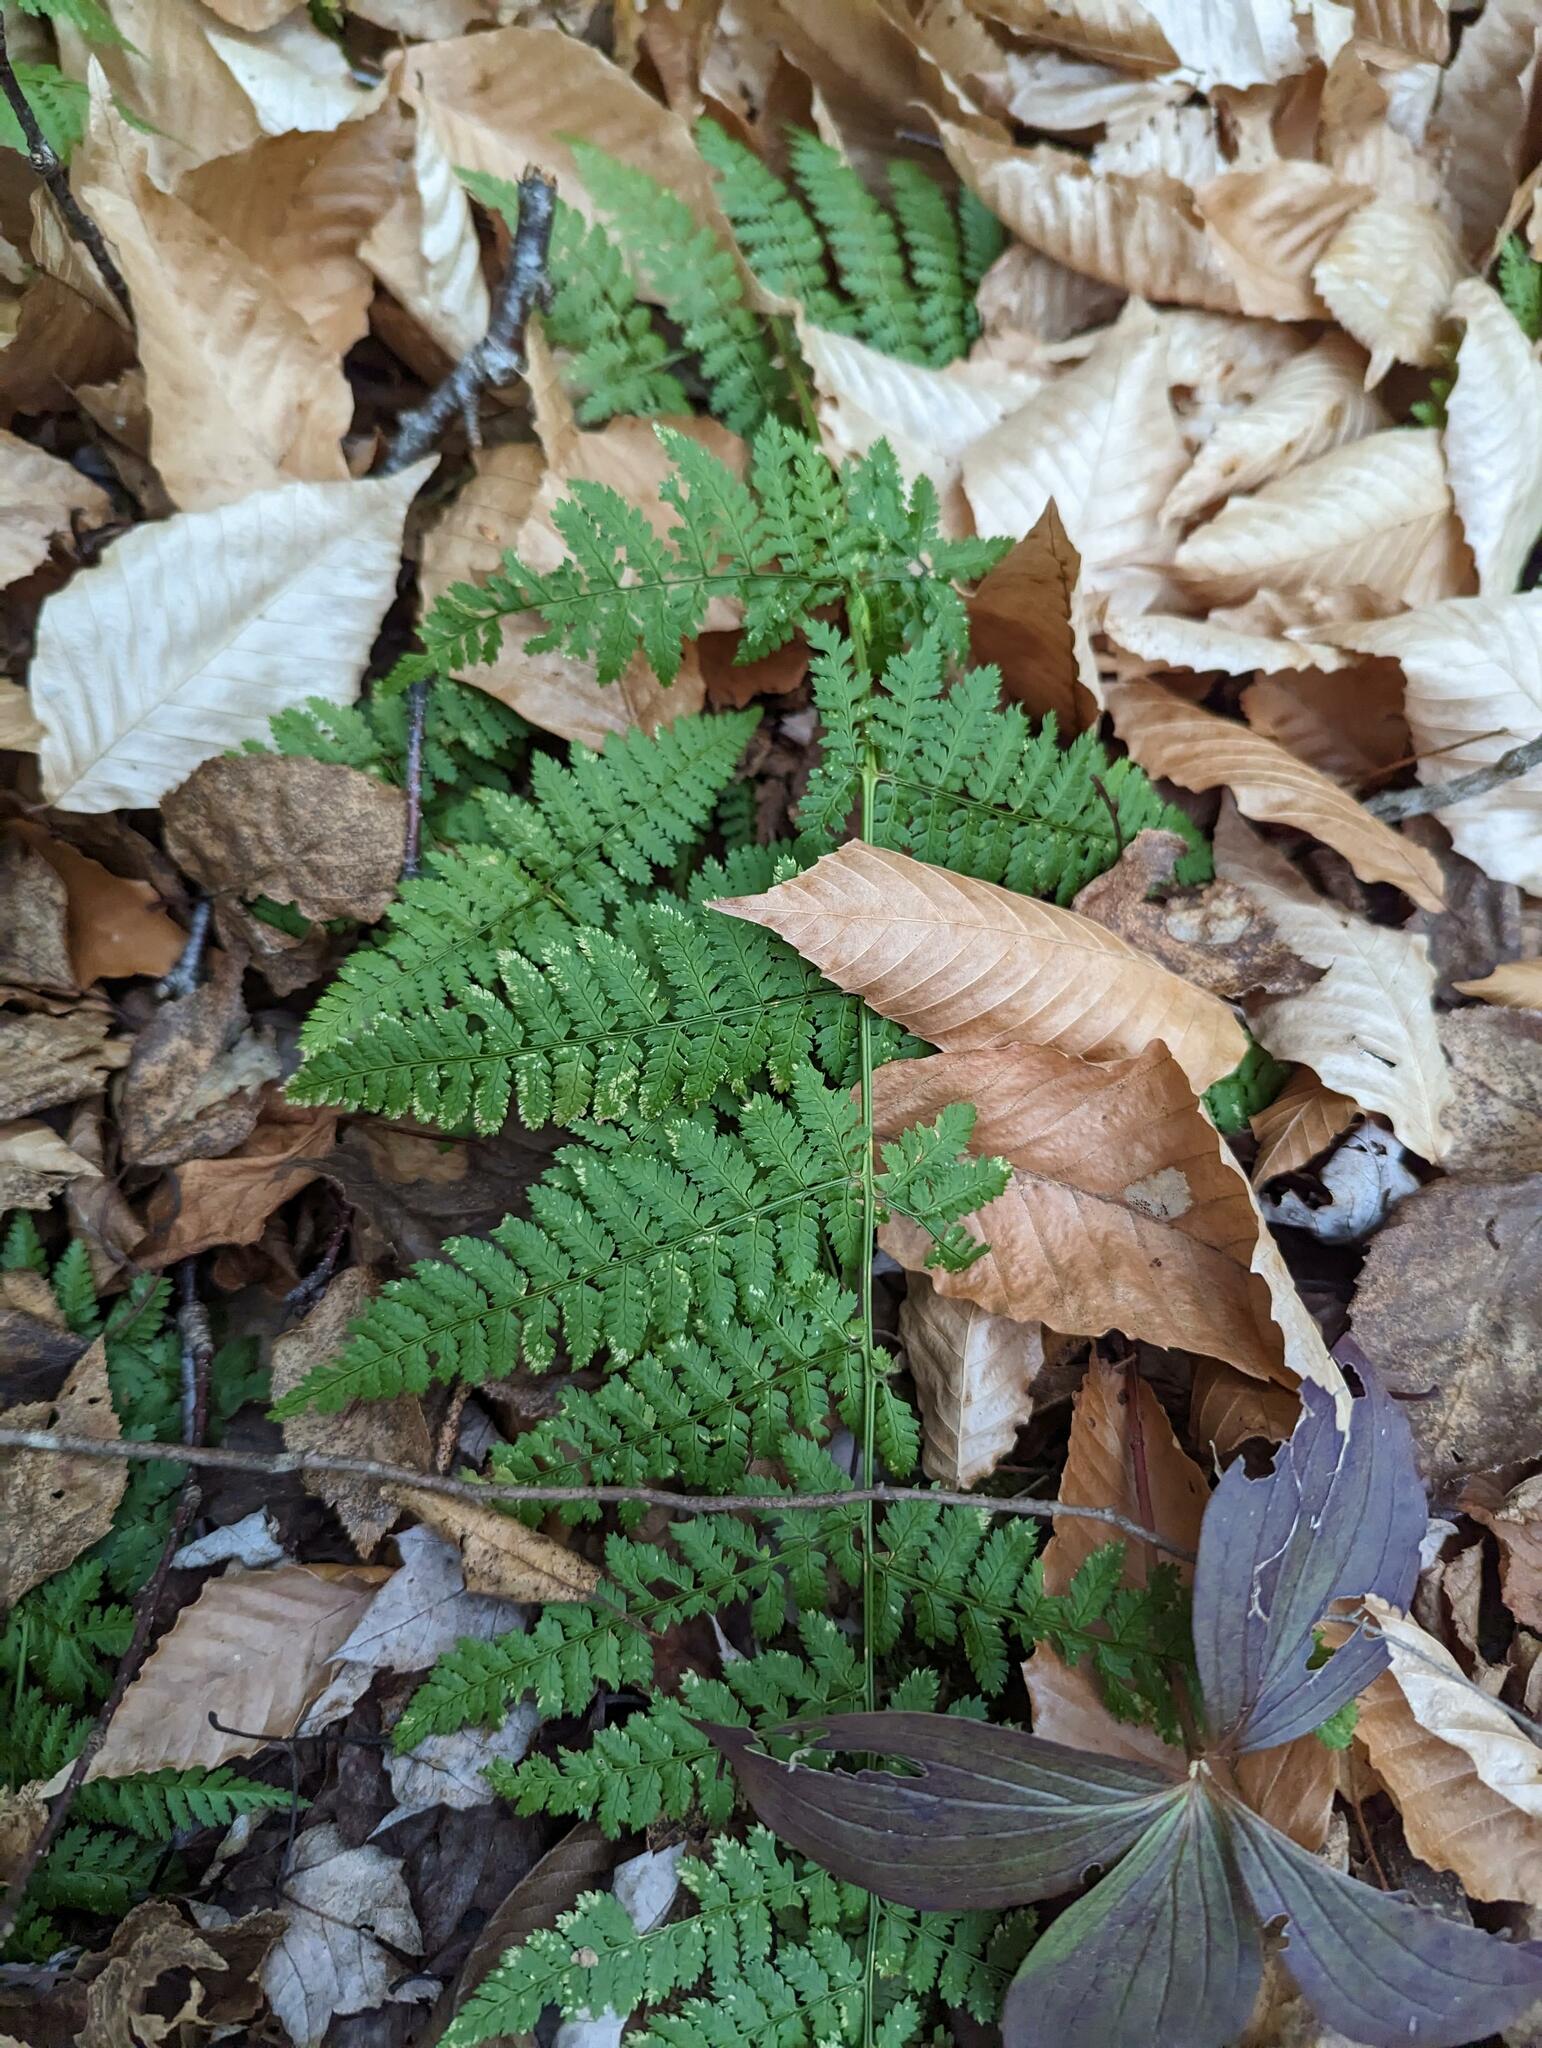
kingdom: Plantae
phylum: Tracheophyta
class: Polypodiopsida
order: Polypodiales
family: Dryopteridaceae
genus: Dryopteris
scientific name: Dryopteris intermedia
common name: Evergreen wood fern
